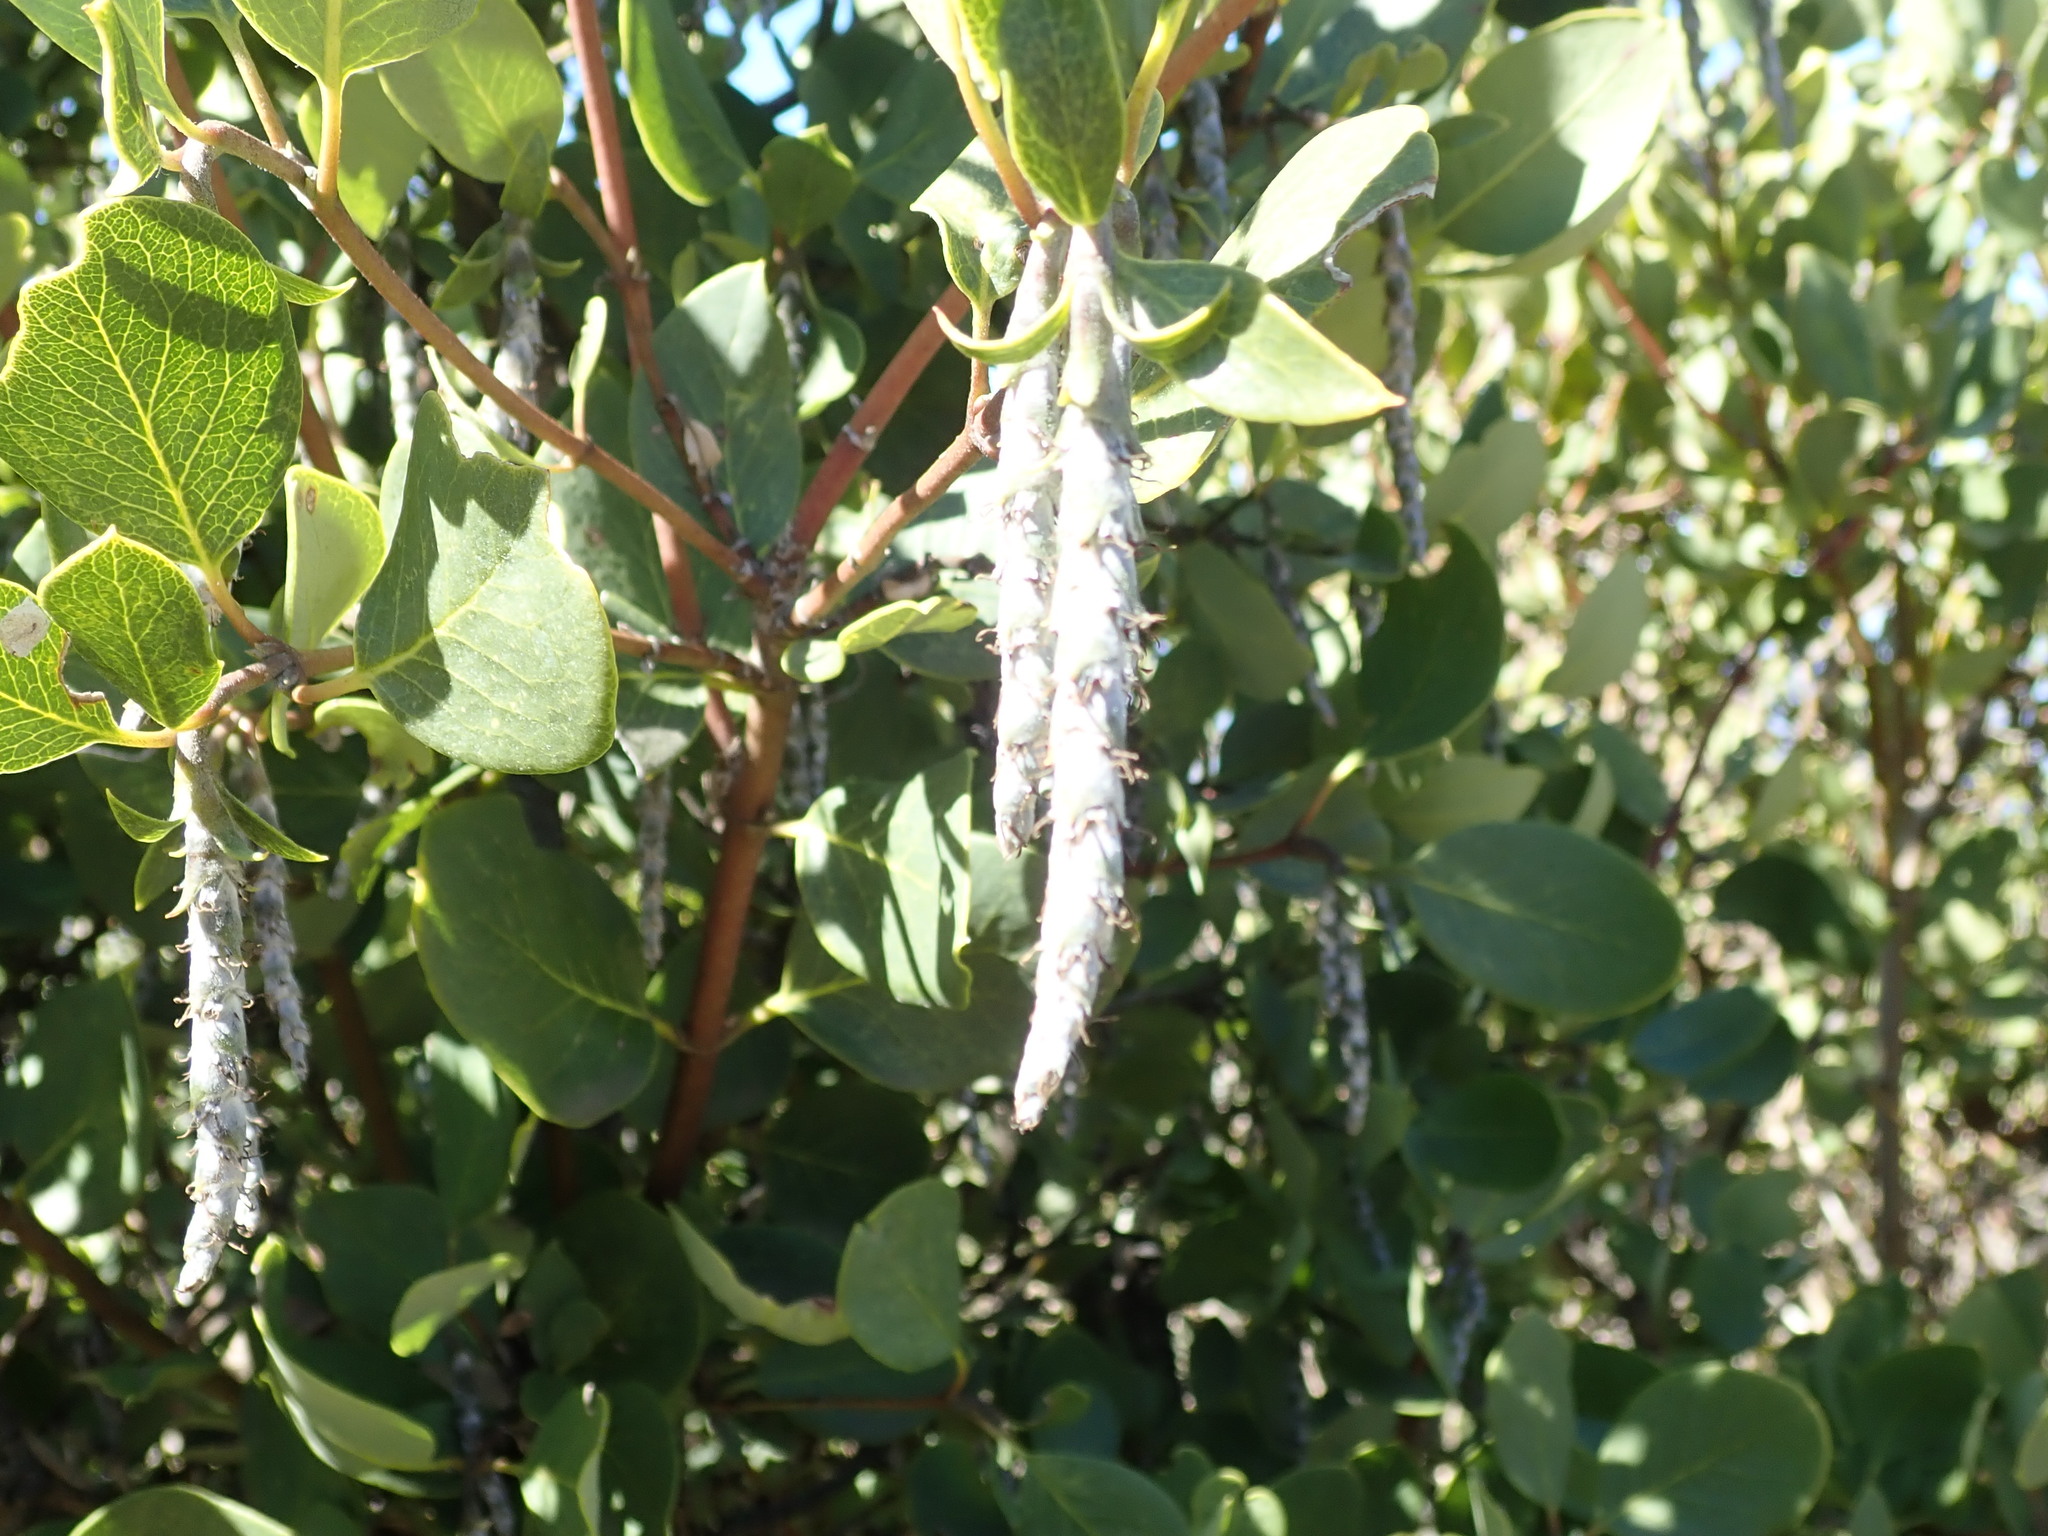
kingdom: Plantae
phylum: Tracheophyta
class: Magnoliopsida
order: Garryales
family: Garryaceae
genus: Garrya
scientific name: Garrya flavescens
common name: Ashy silk-tassel
